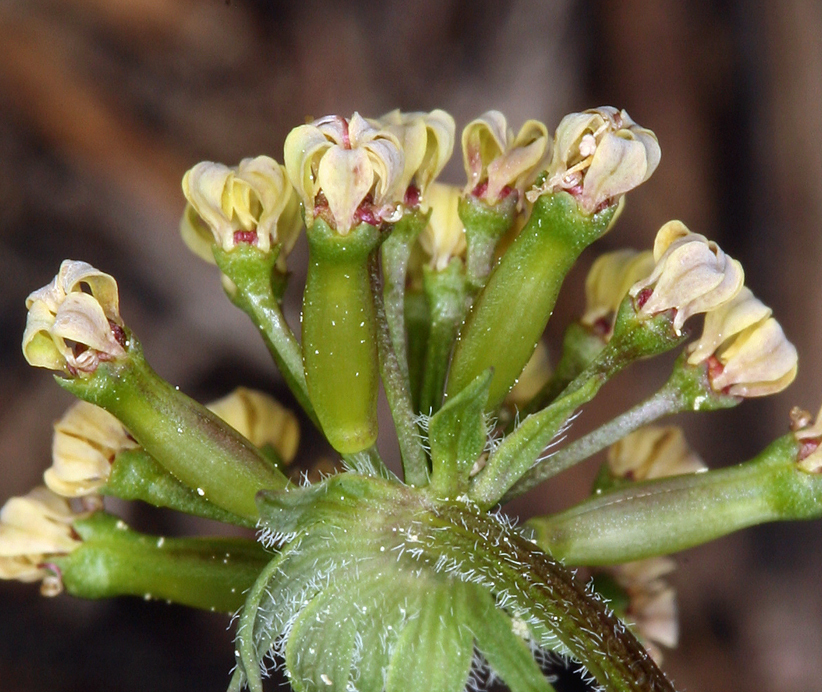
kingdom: Plantae
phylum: Tracheophyta
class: Magnoliopsida
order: Apiales
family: Apiaceae
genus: Lomatium
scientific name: Lomatium macrocarpum
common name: Big-seed biscuitroot
